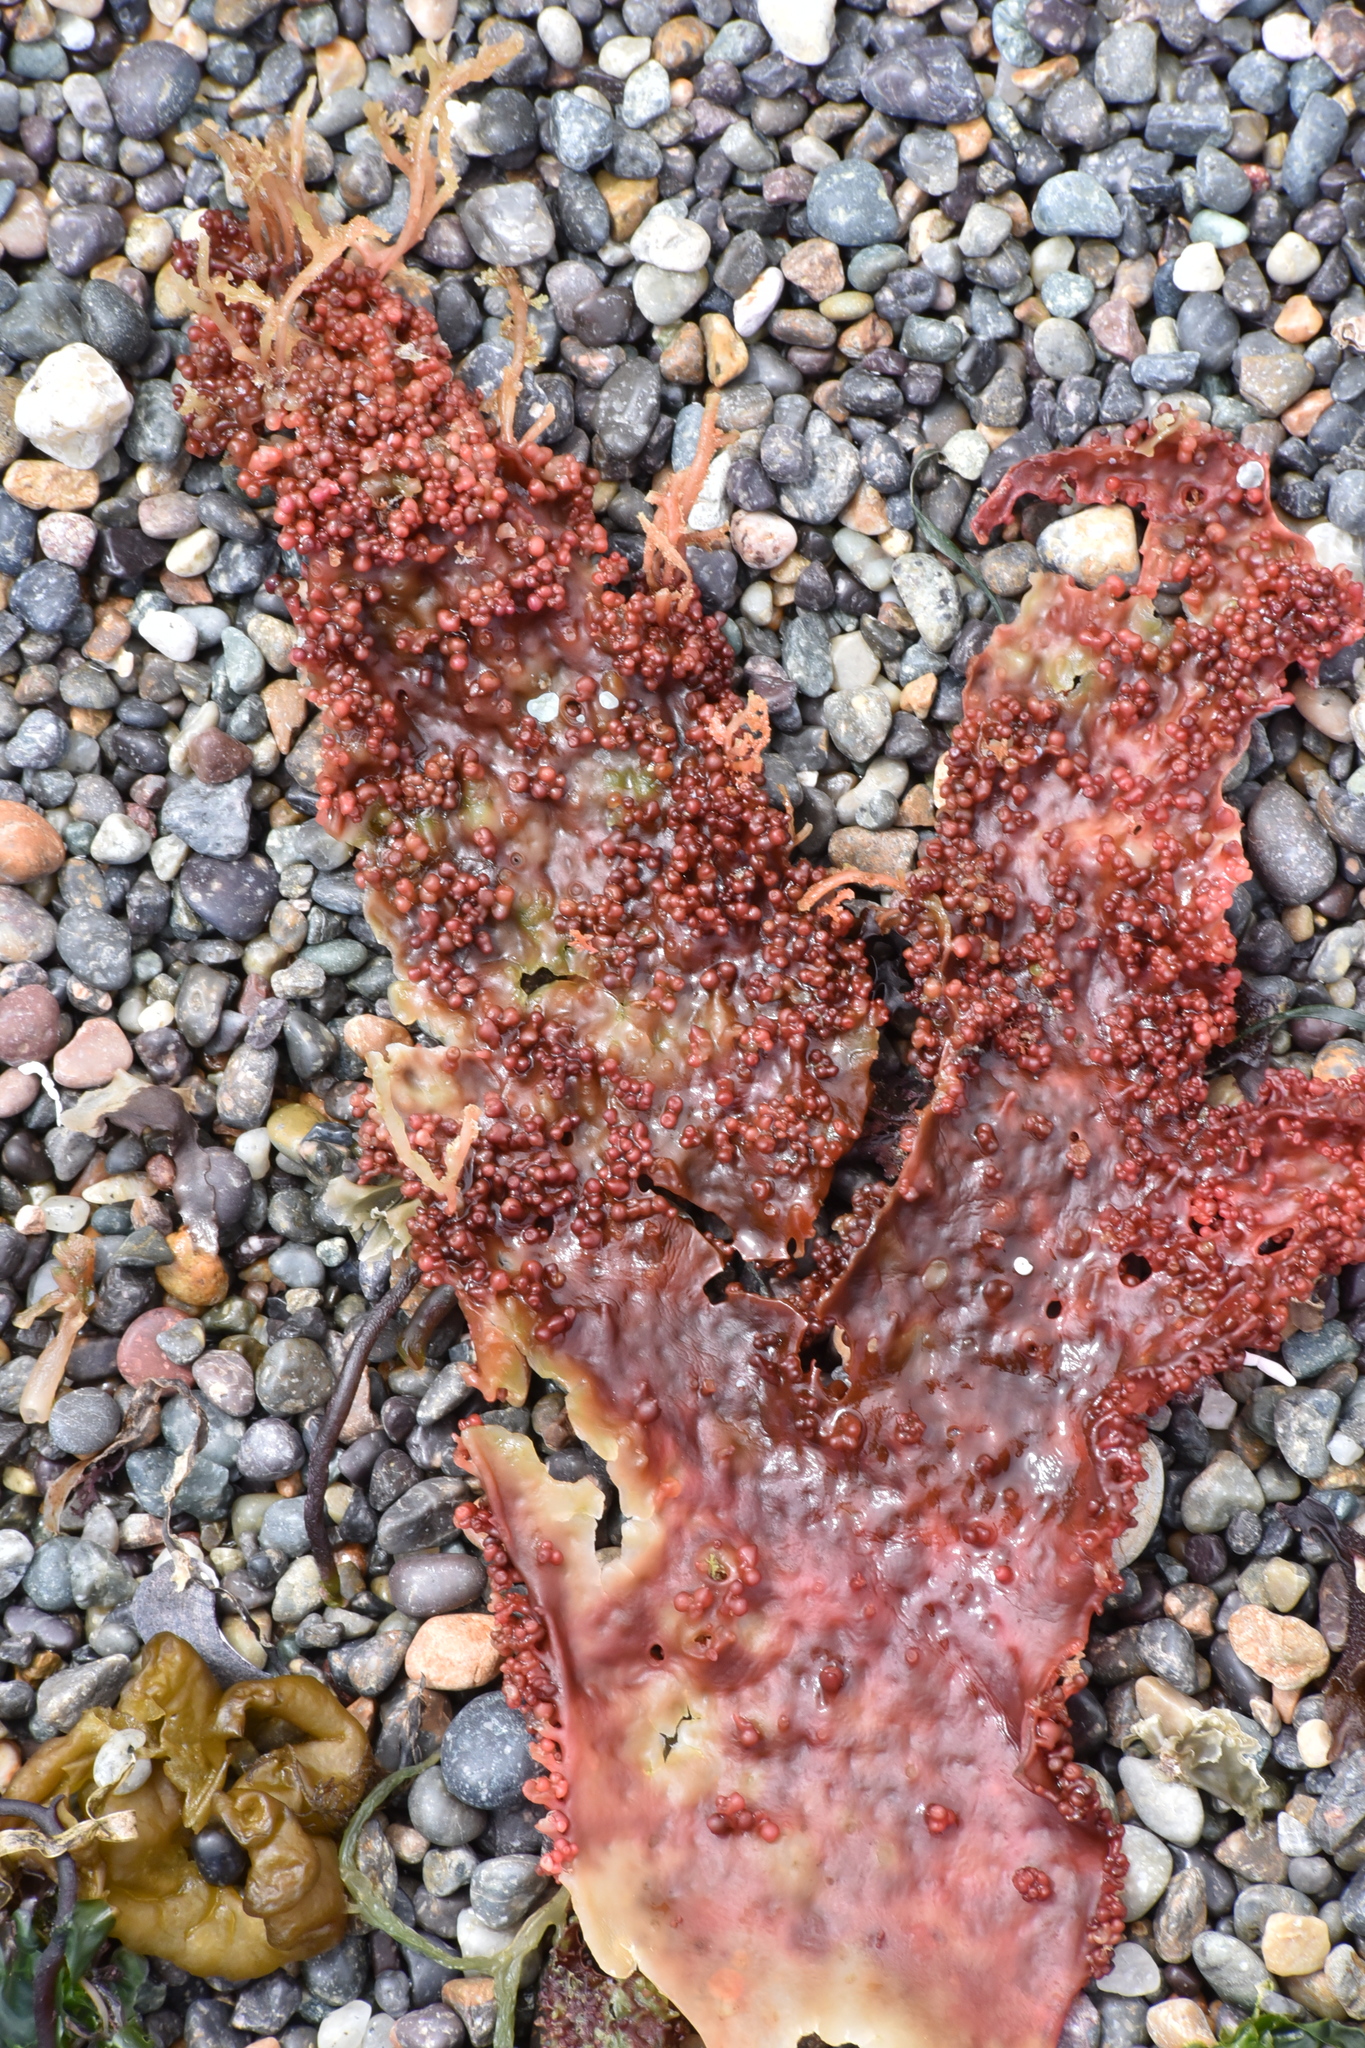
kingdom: Plantae
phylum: Rhodophyta
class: Florideophyceae
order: Gigartinales
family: Gigartinaceae
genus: Chondracanthus
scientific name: Chondracanthus exasperatus
